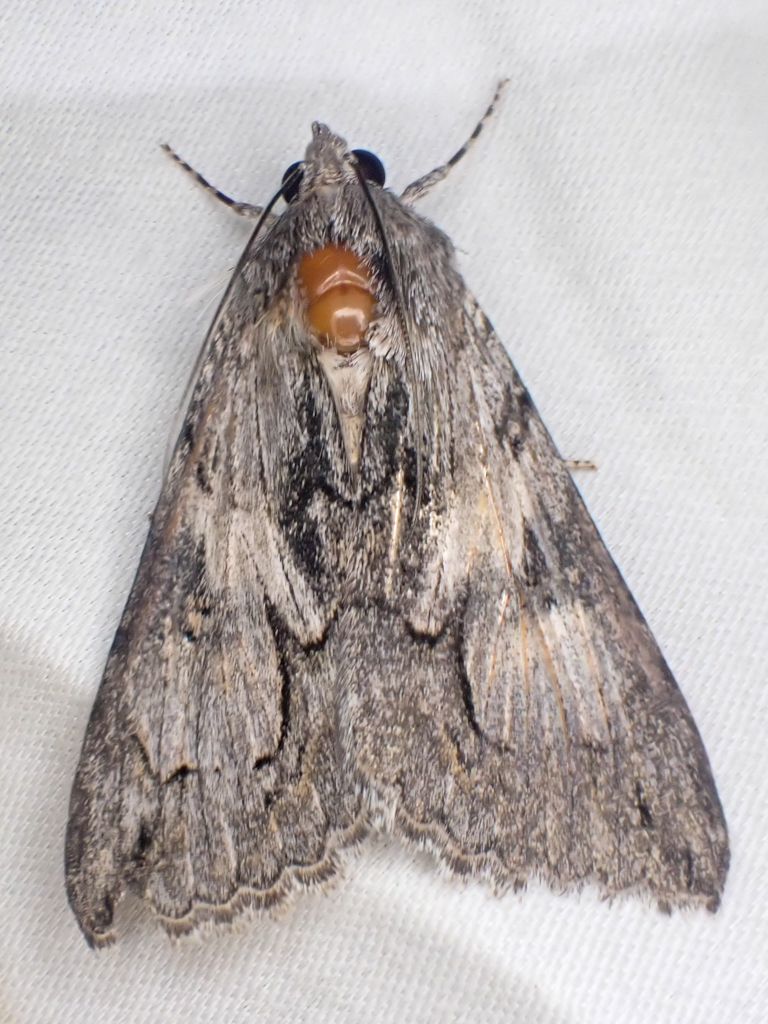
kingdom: Animalia
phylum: Arthropoda
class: Insecta
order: Lepidoptera
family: Erebidae
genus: Melipotis
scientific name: Melipotis jucunda
